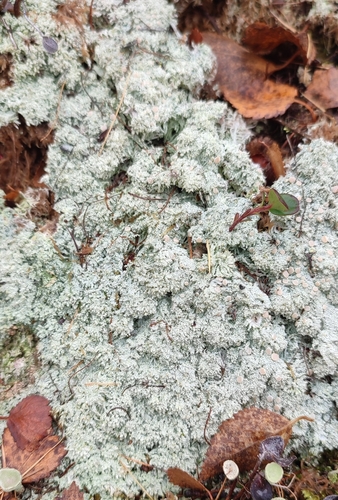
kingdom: Fungi
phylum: Ascomycota
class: Lecanoromycetes
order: Pertusariales
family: Icmadophilaceae
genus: Icmadophila
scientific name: Icmadophila ericetorum
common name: Candy lichen
